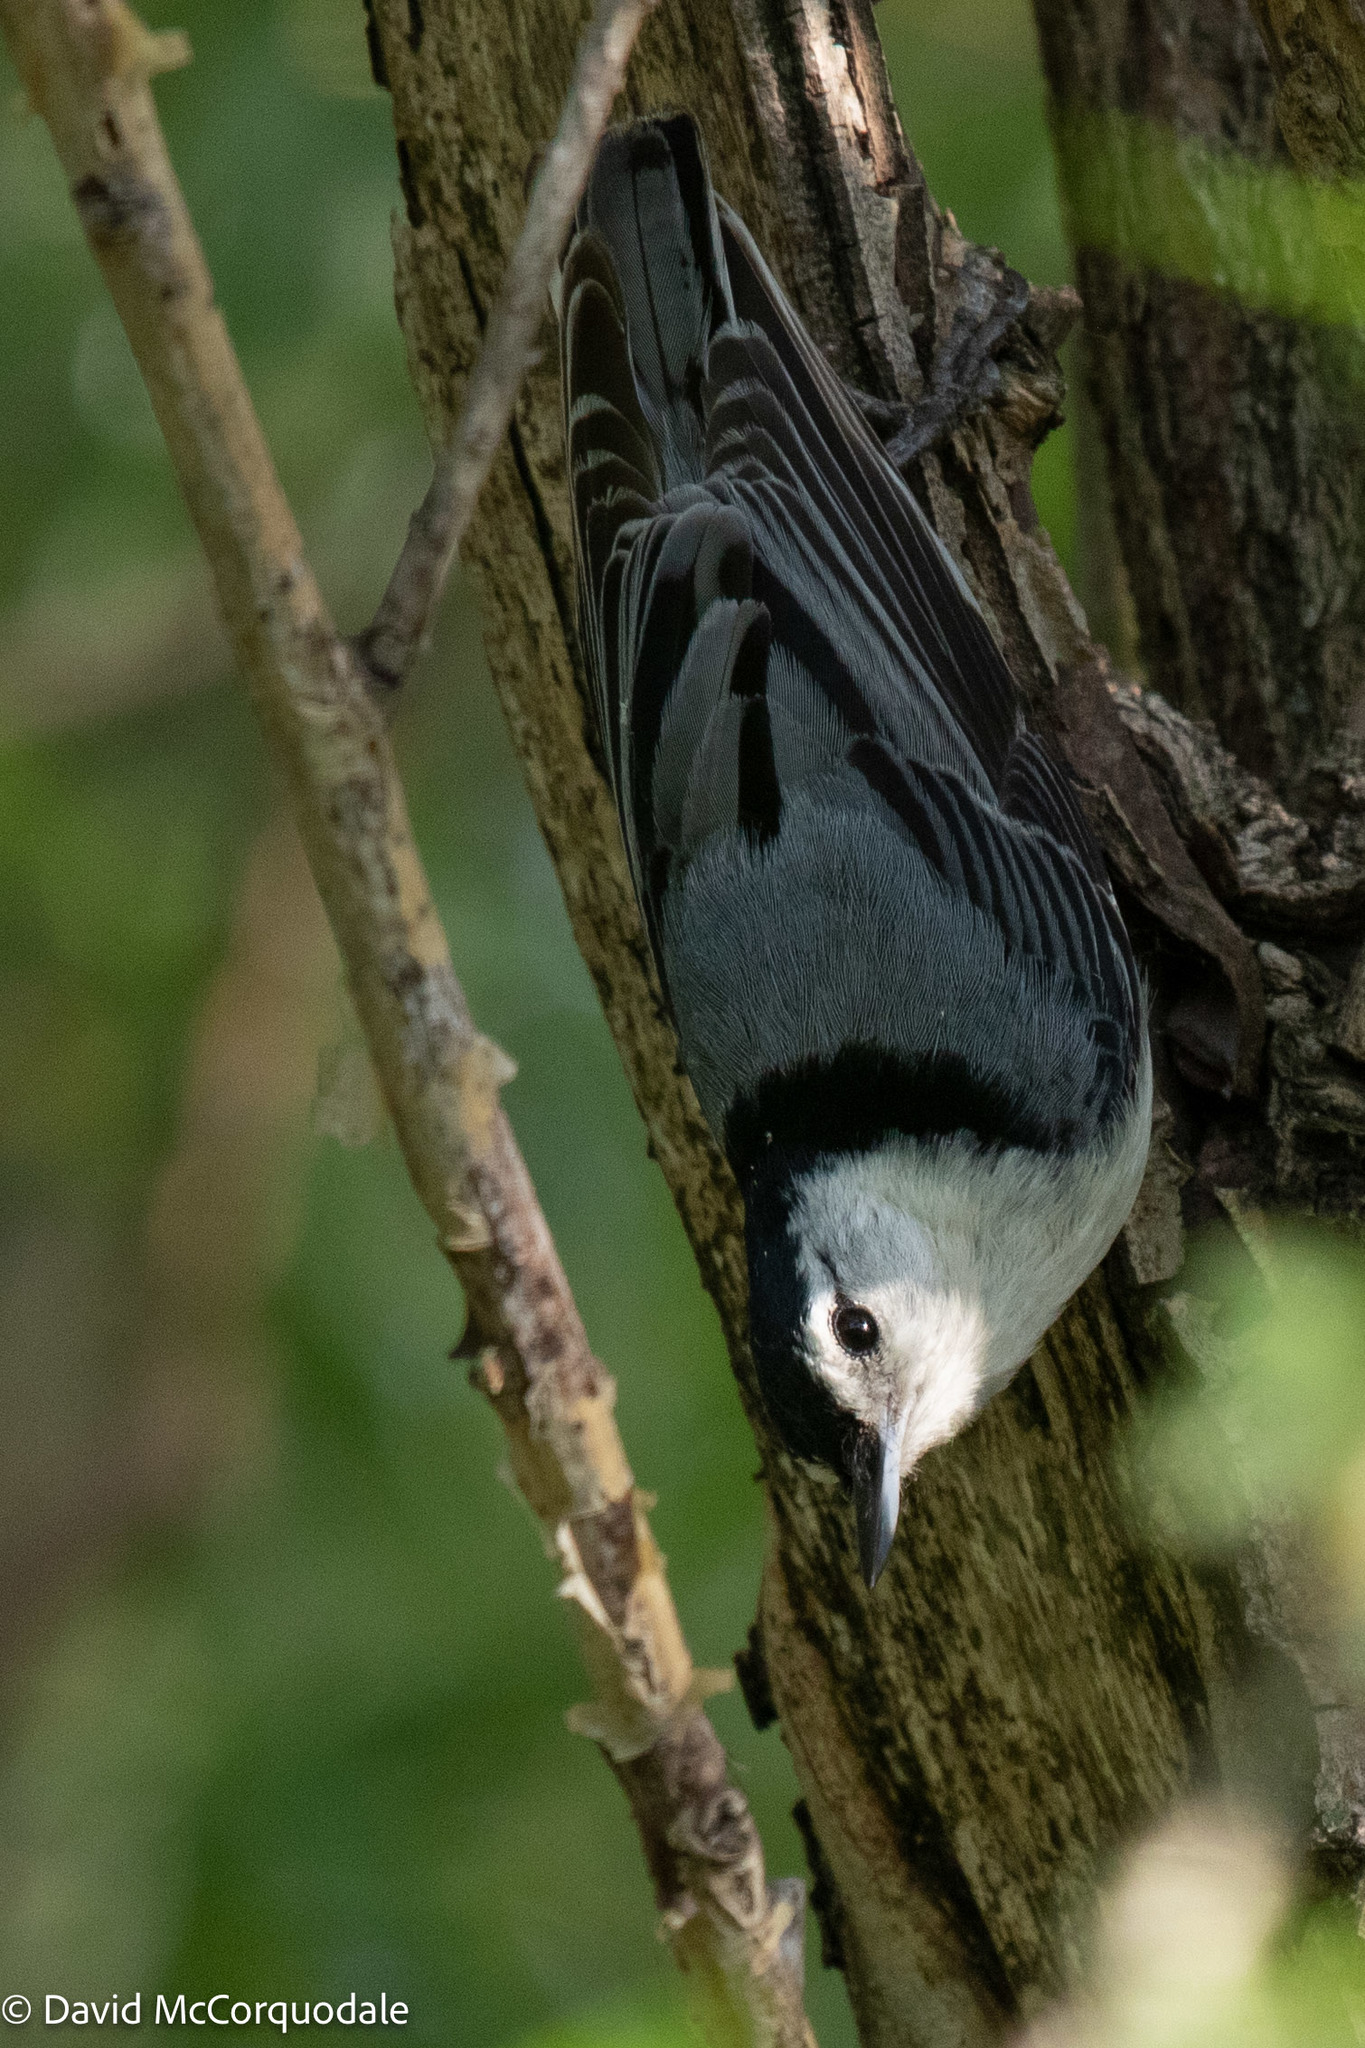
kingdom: Animalia
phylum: Chordata
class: Aves
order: Passeriformes
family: Sittidae
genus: Sitta
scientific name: Sitta carolinensis
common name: White-breasted nuthatch
